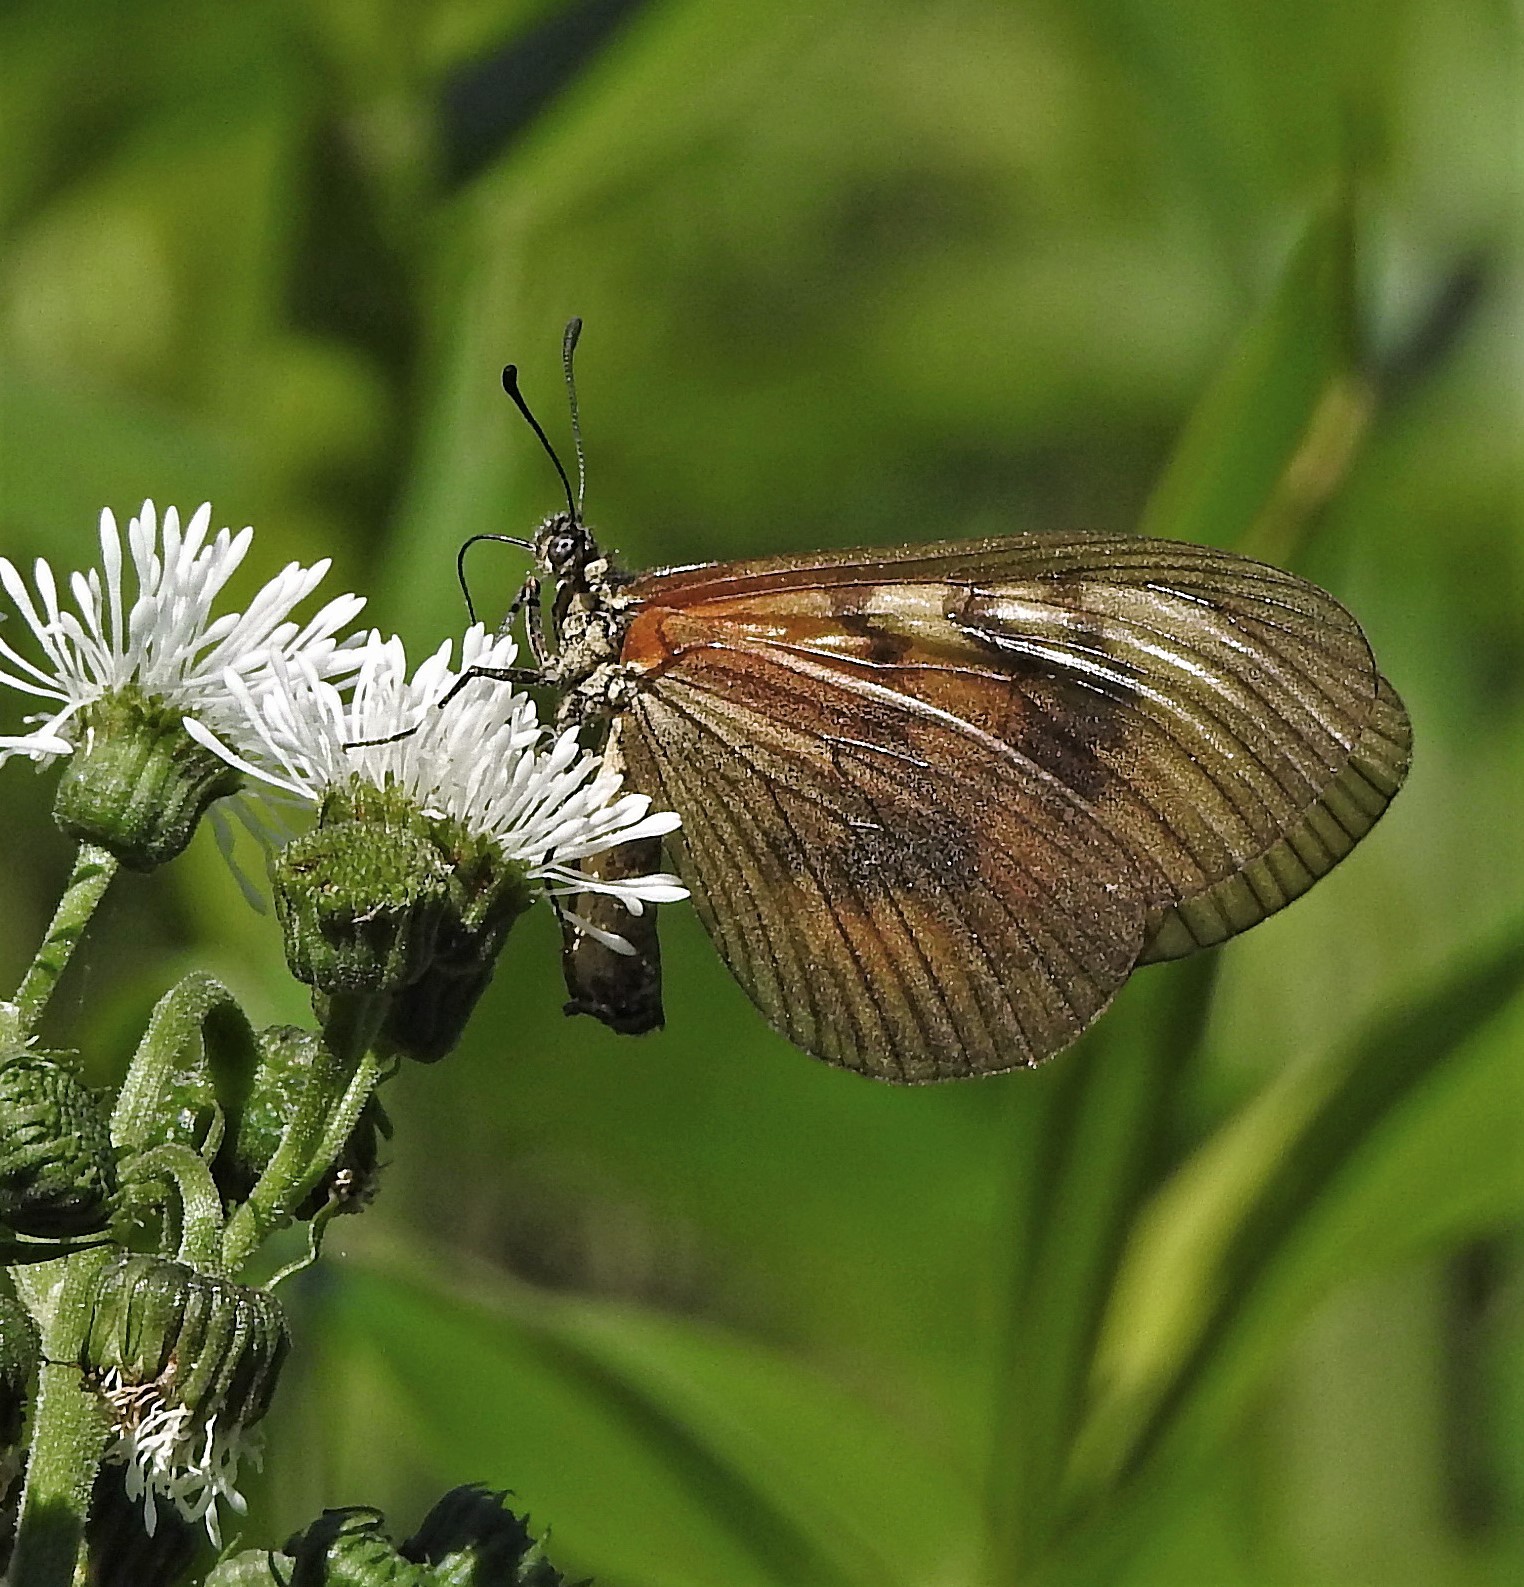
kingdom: Animalia
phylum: Arthropoda
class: Insecta
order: Lepidoptera
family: Nymphalidae
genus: Acraea
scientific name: Acraea momina
